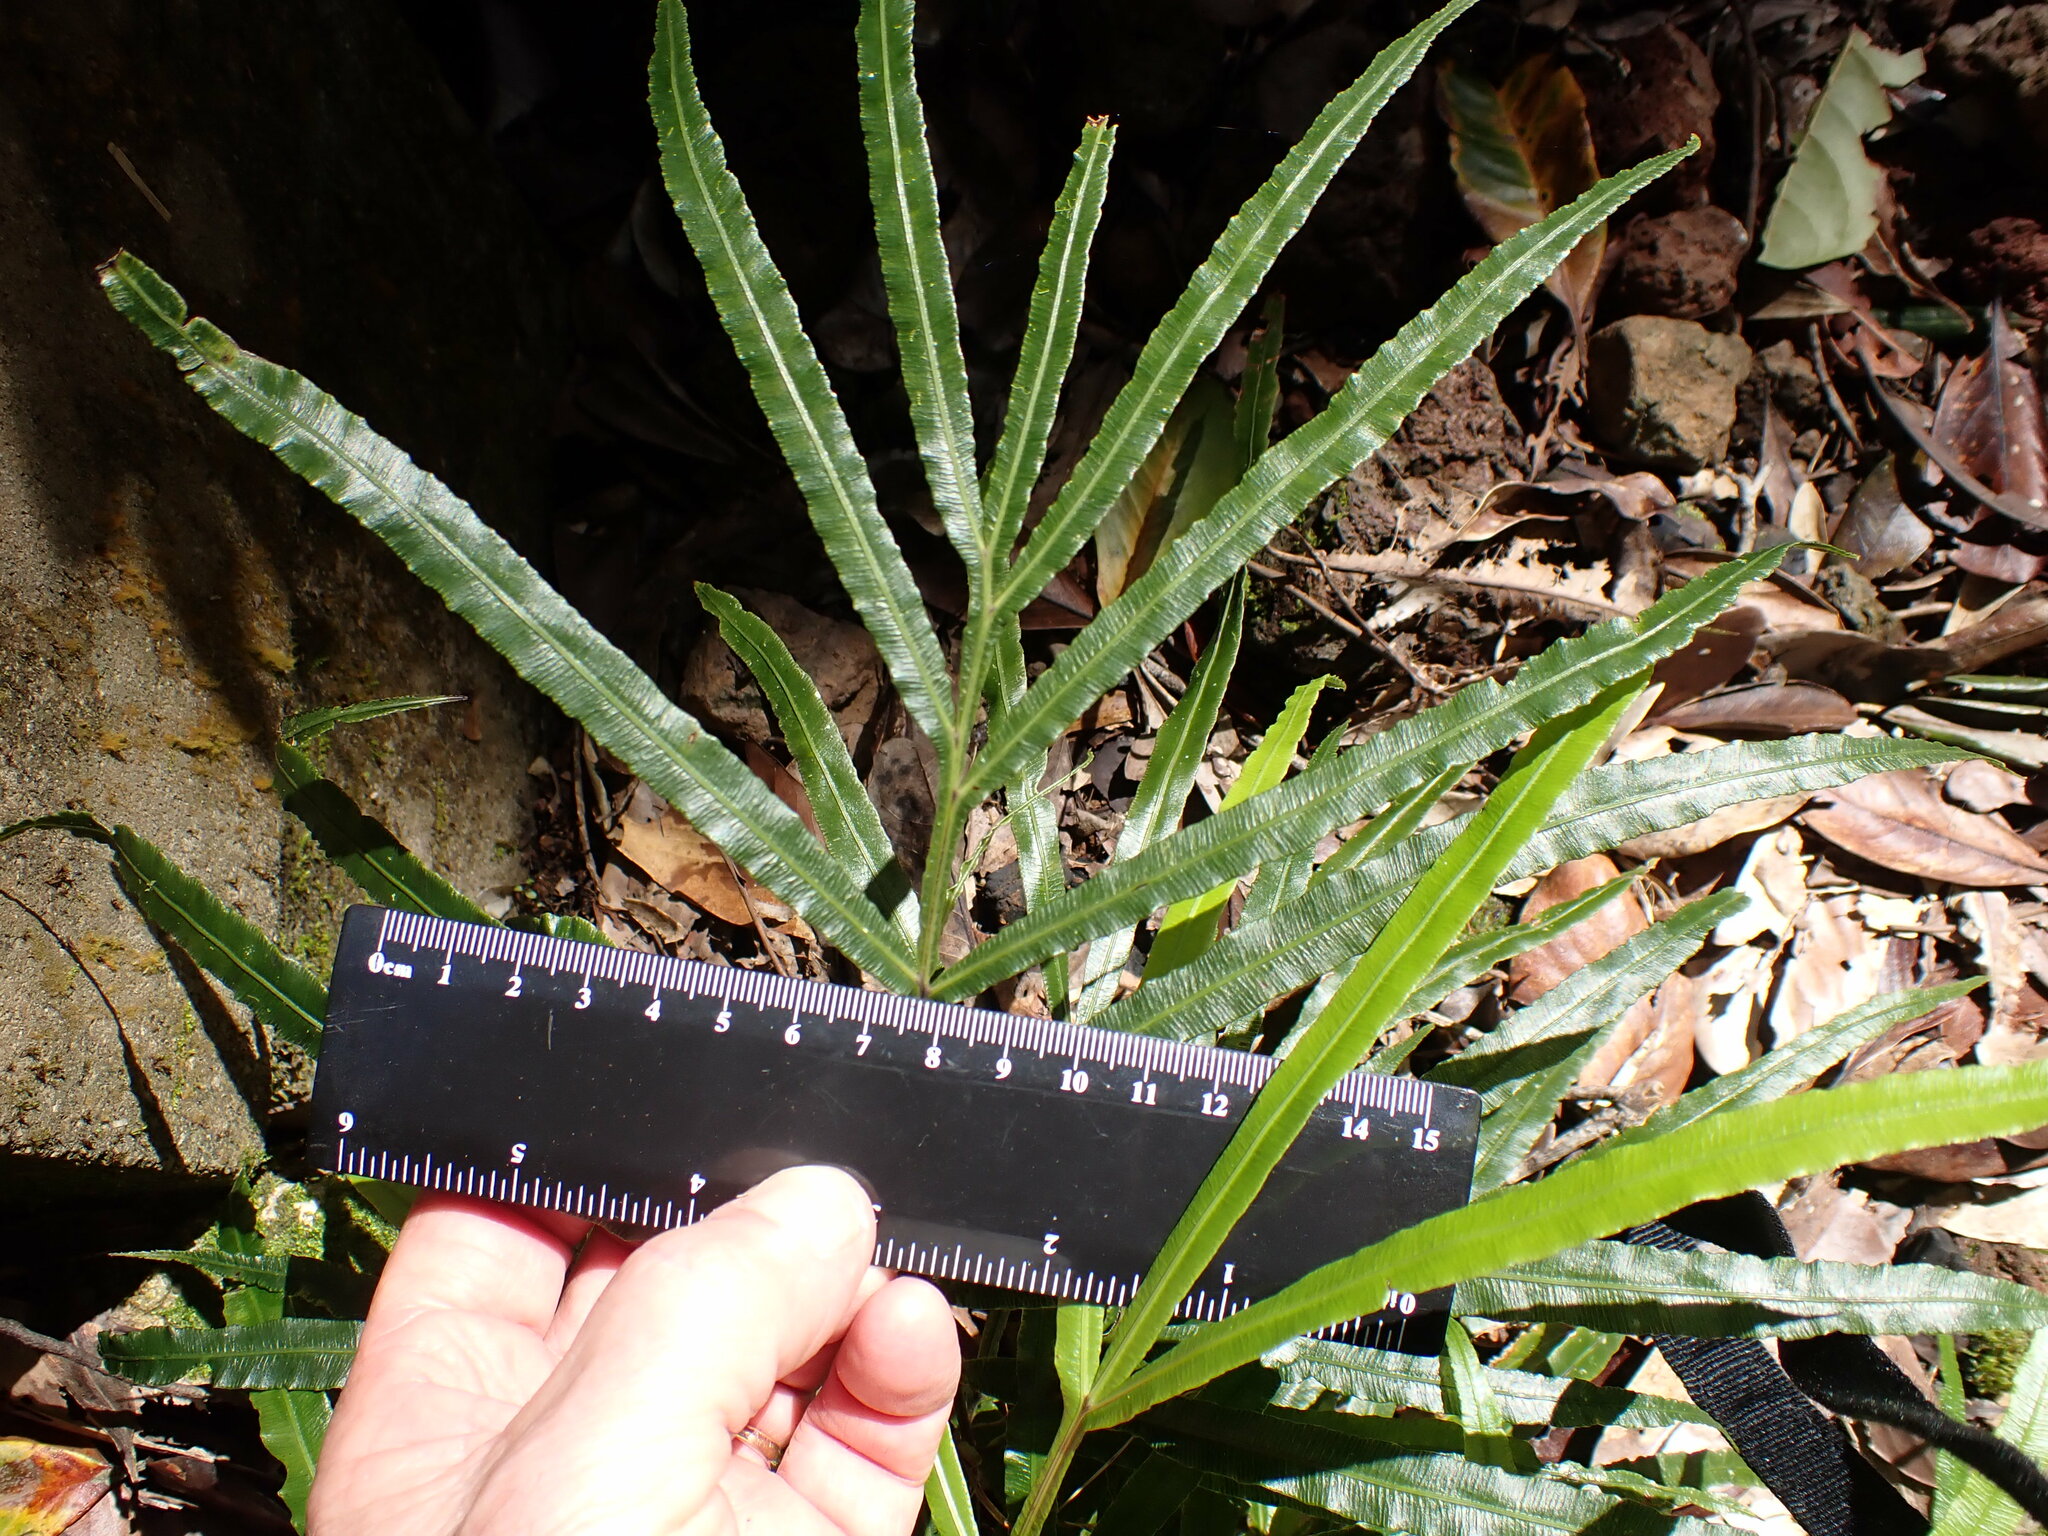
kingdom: Plantae
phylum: Tracheophyta
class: Polypodiopsida
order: Polypodiales
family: Blechnaceae
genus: Austroblechnum
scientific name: Austroblechnum patersonii
